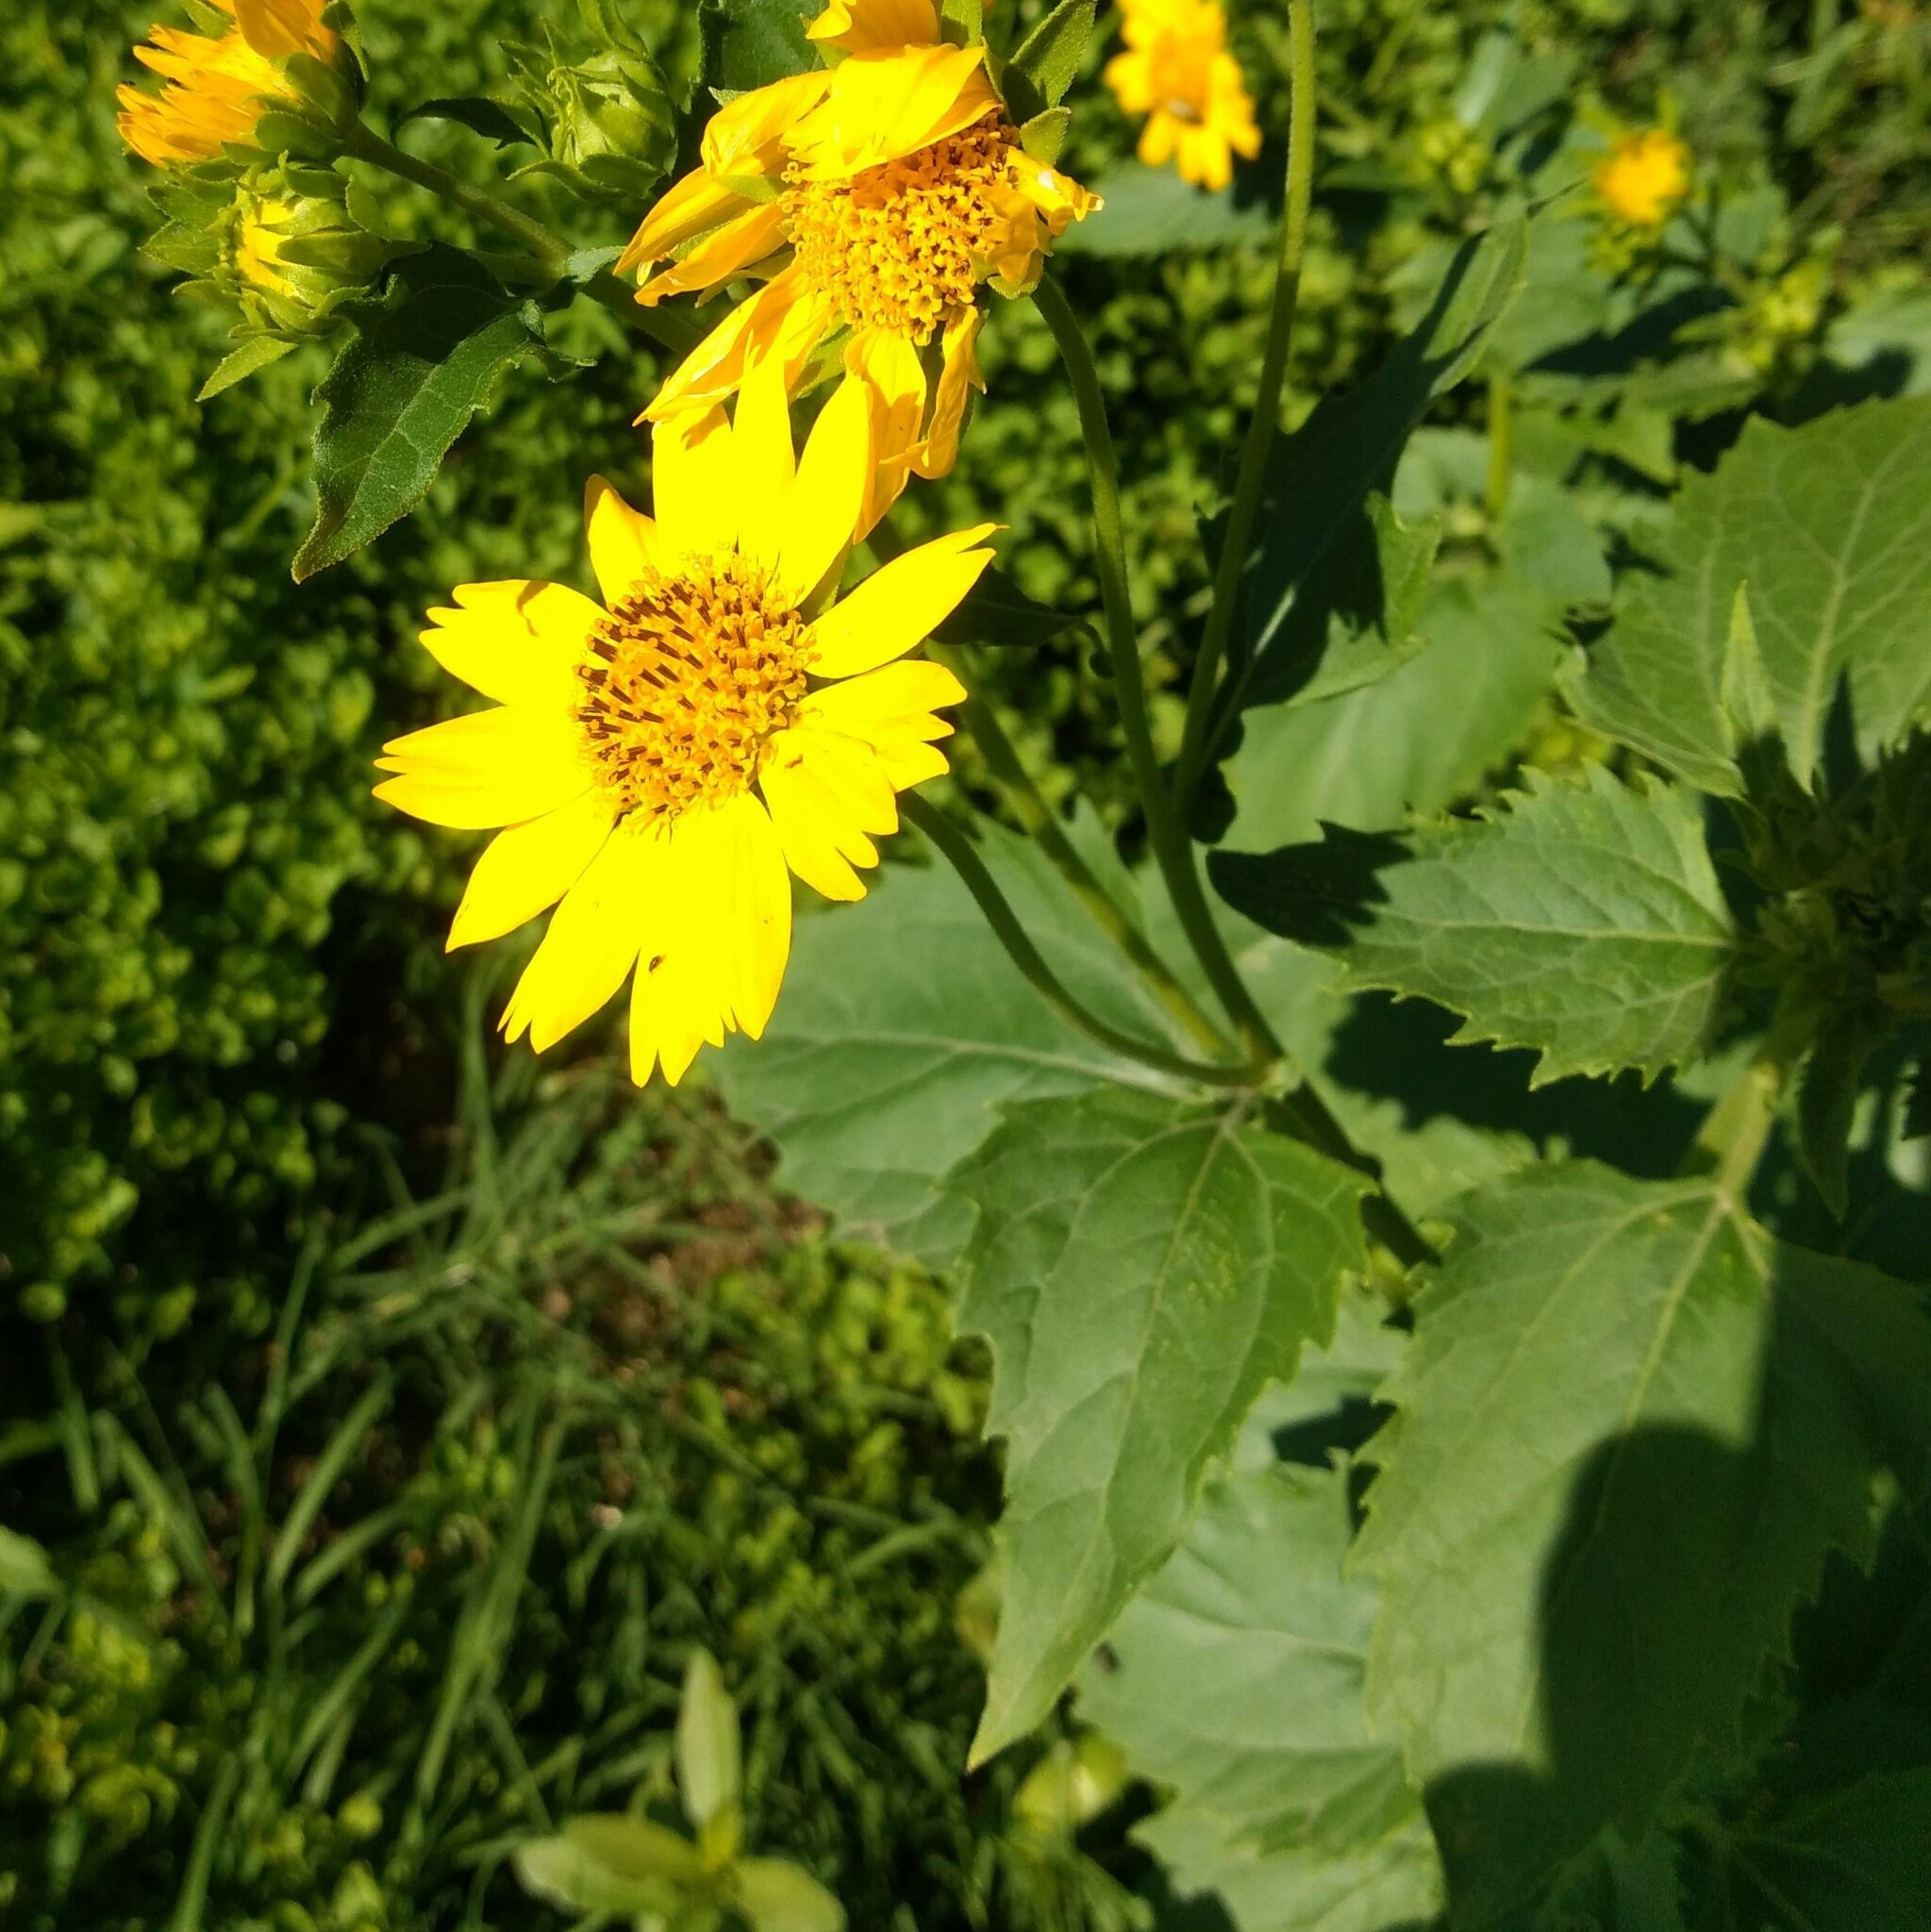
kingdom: Plantae
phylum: Tracheophyta
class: Magnoliopsida
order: Asterales
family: Asteraceae
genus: Verbesina
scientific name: Verbesina encelioides
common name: Golden crownbeard
